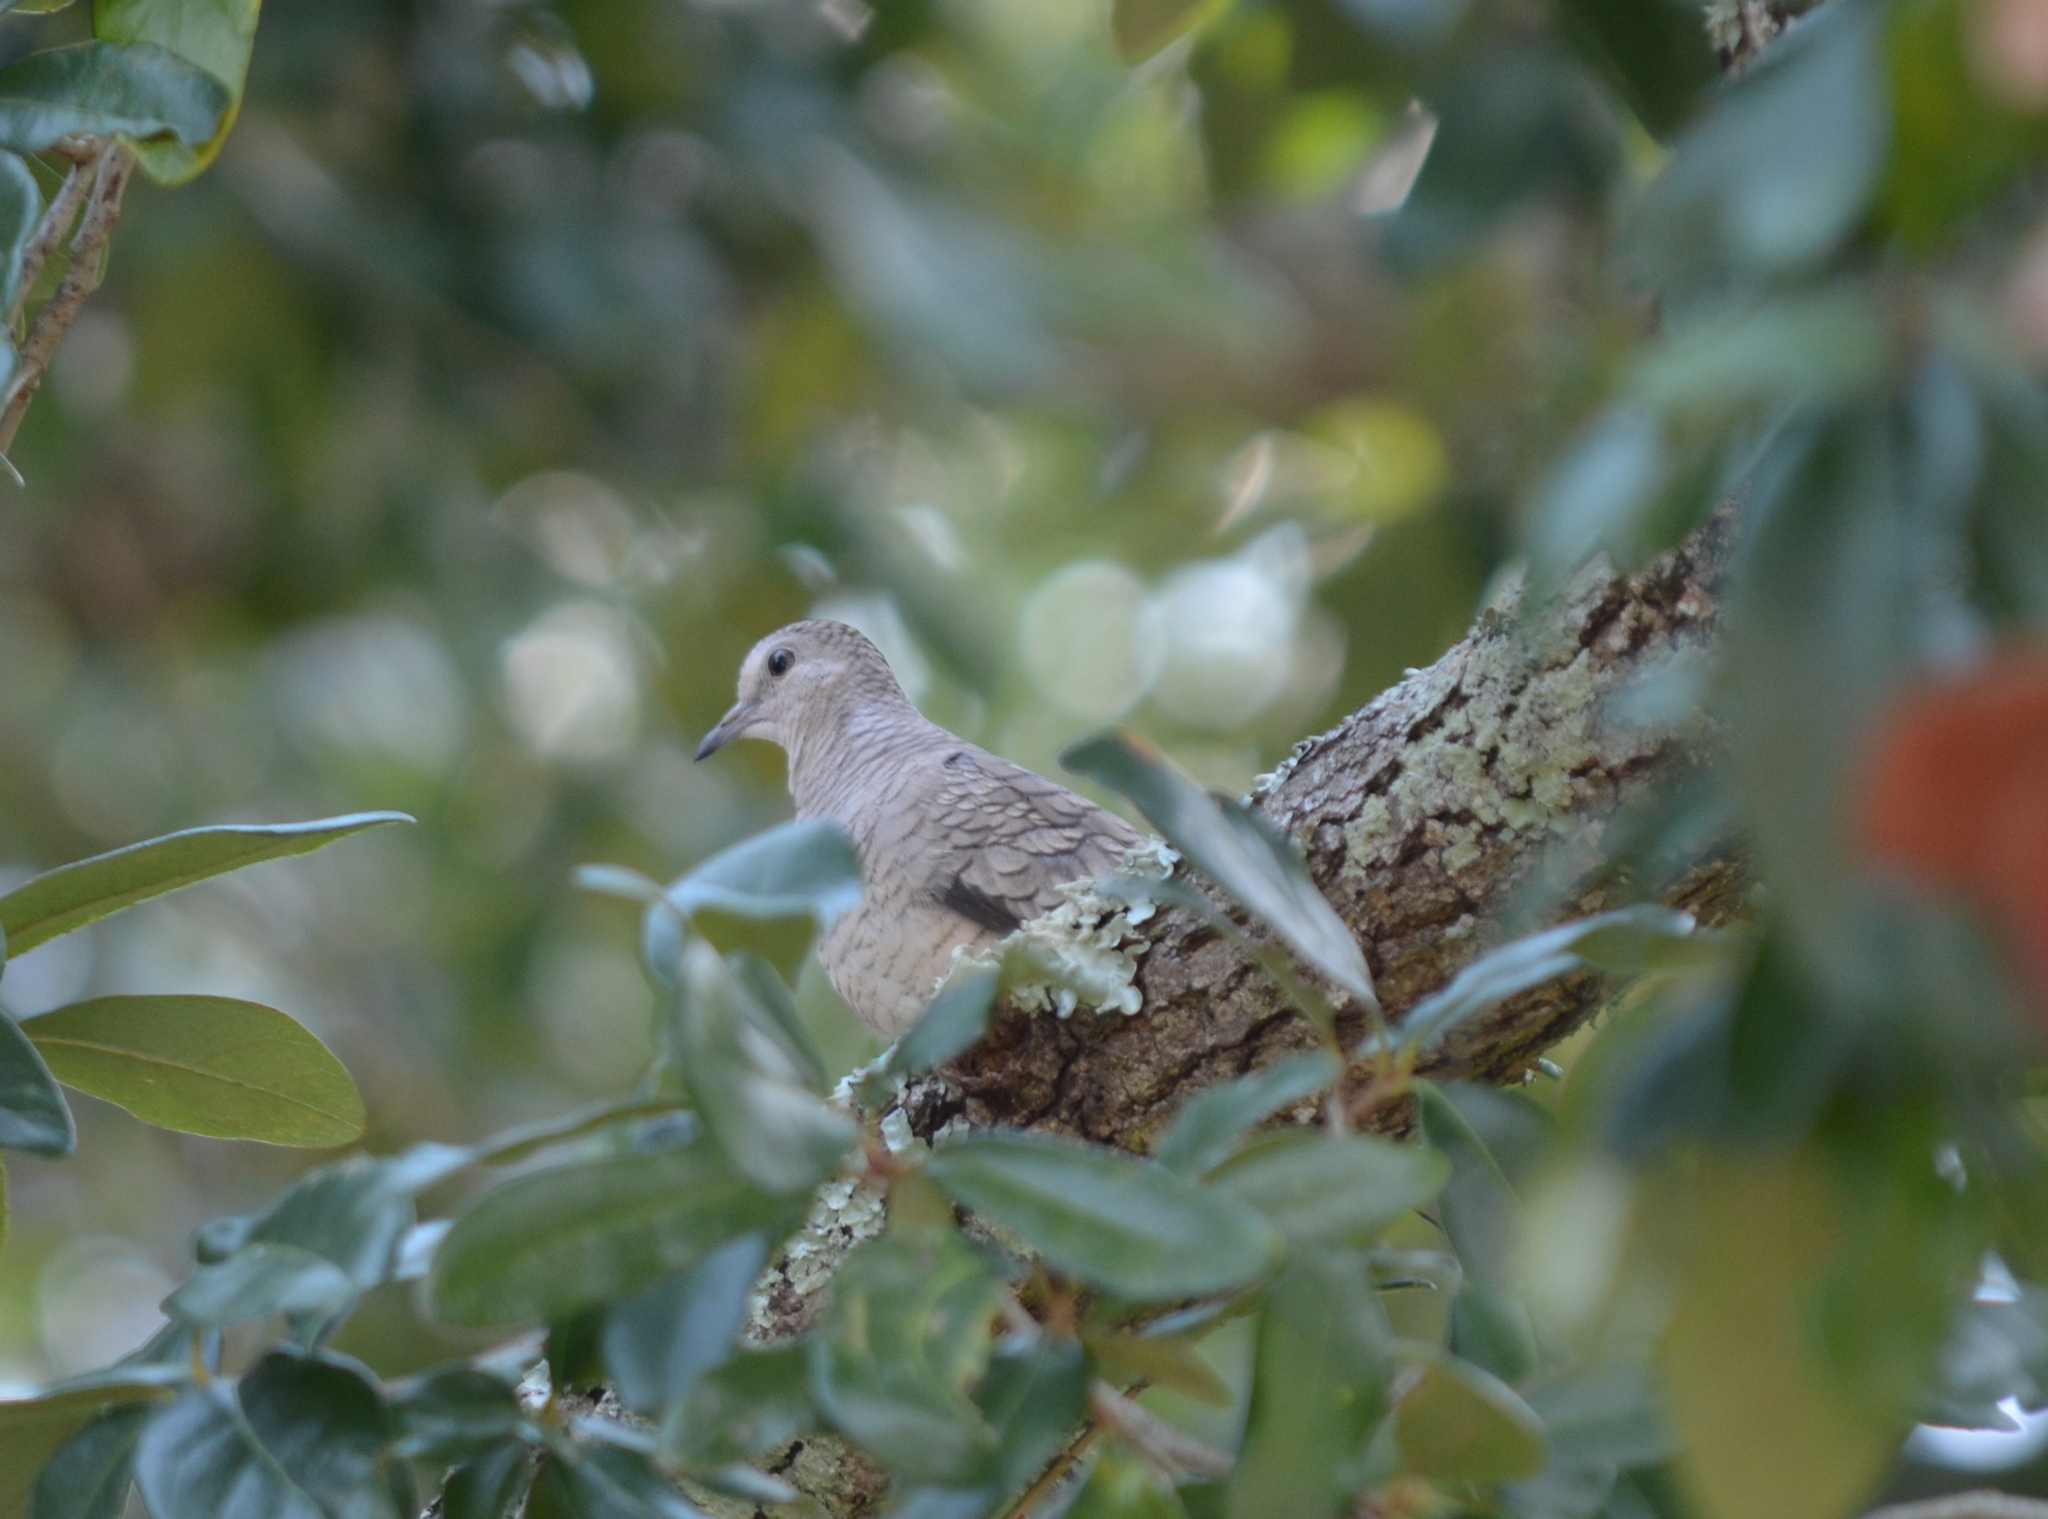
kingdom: Animalia
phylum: Chordata
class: Aves
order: Columbiformes
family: Columbidae
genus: Columbina
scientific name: Columbina inca
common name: Inca dove
